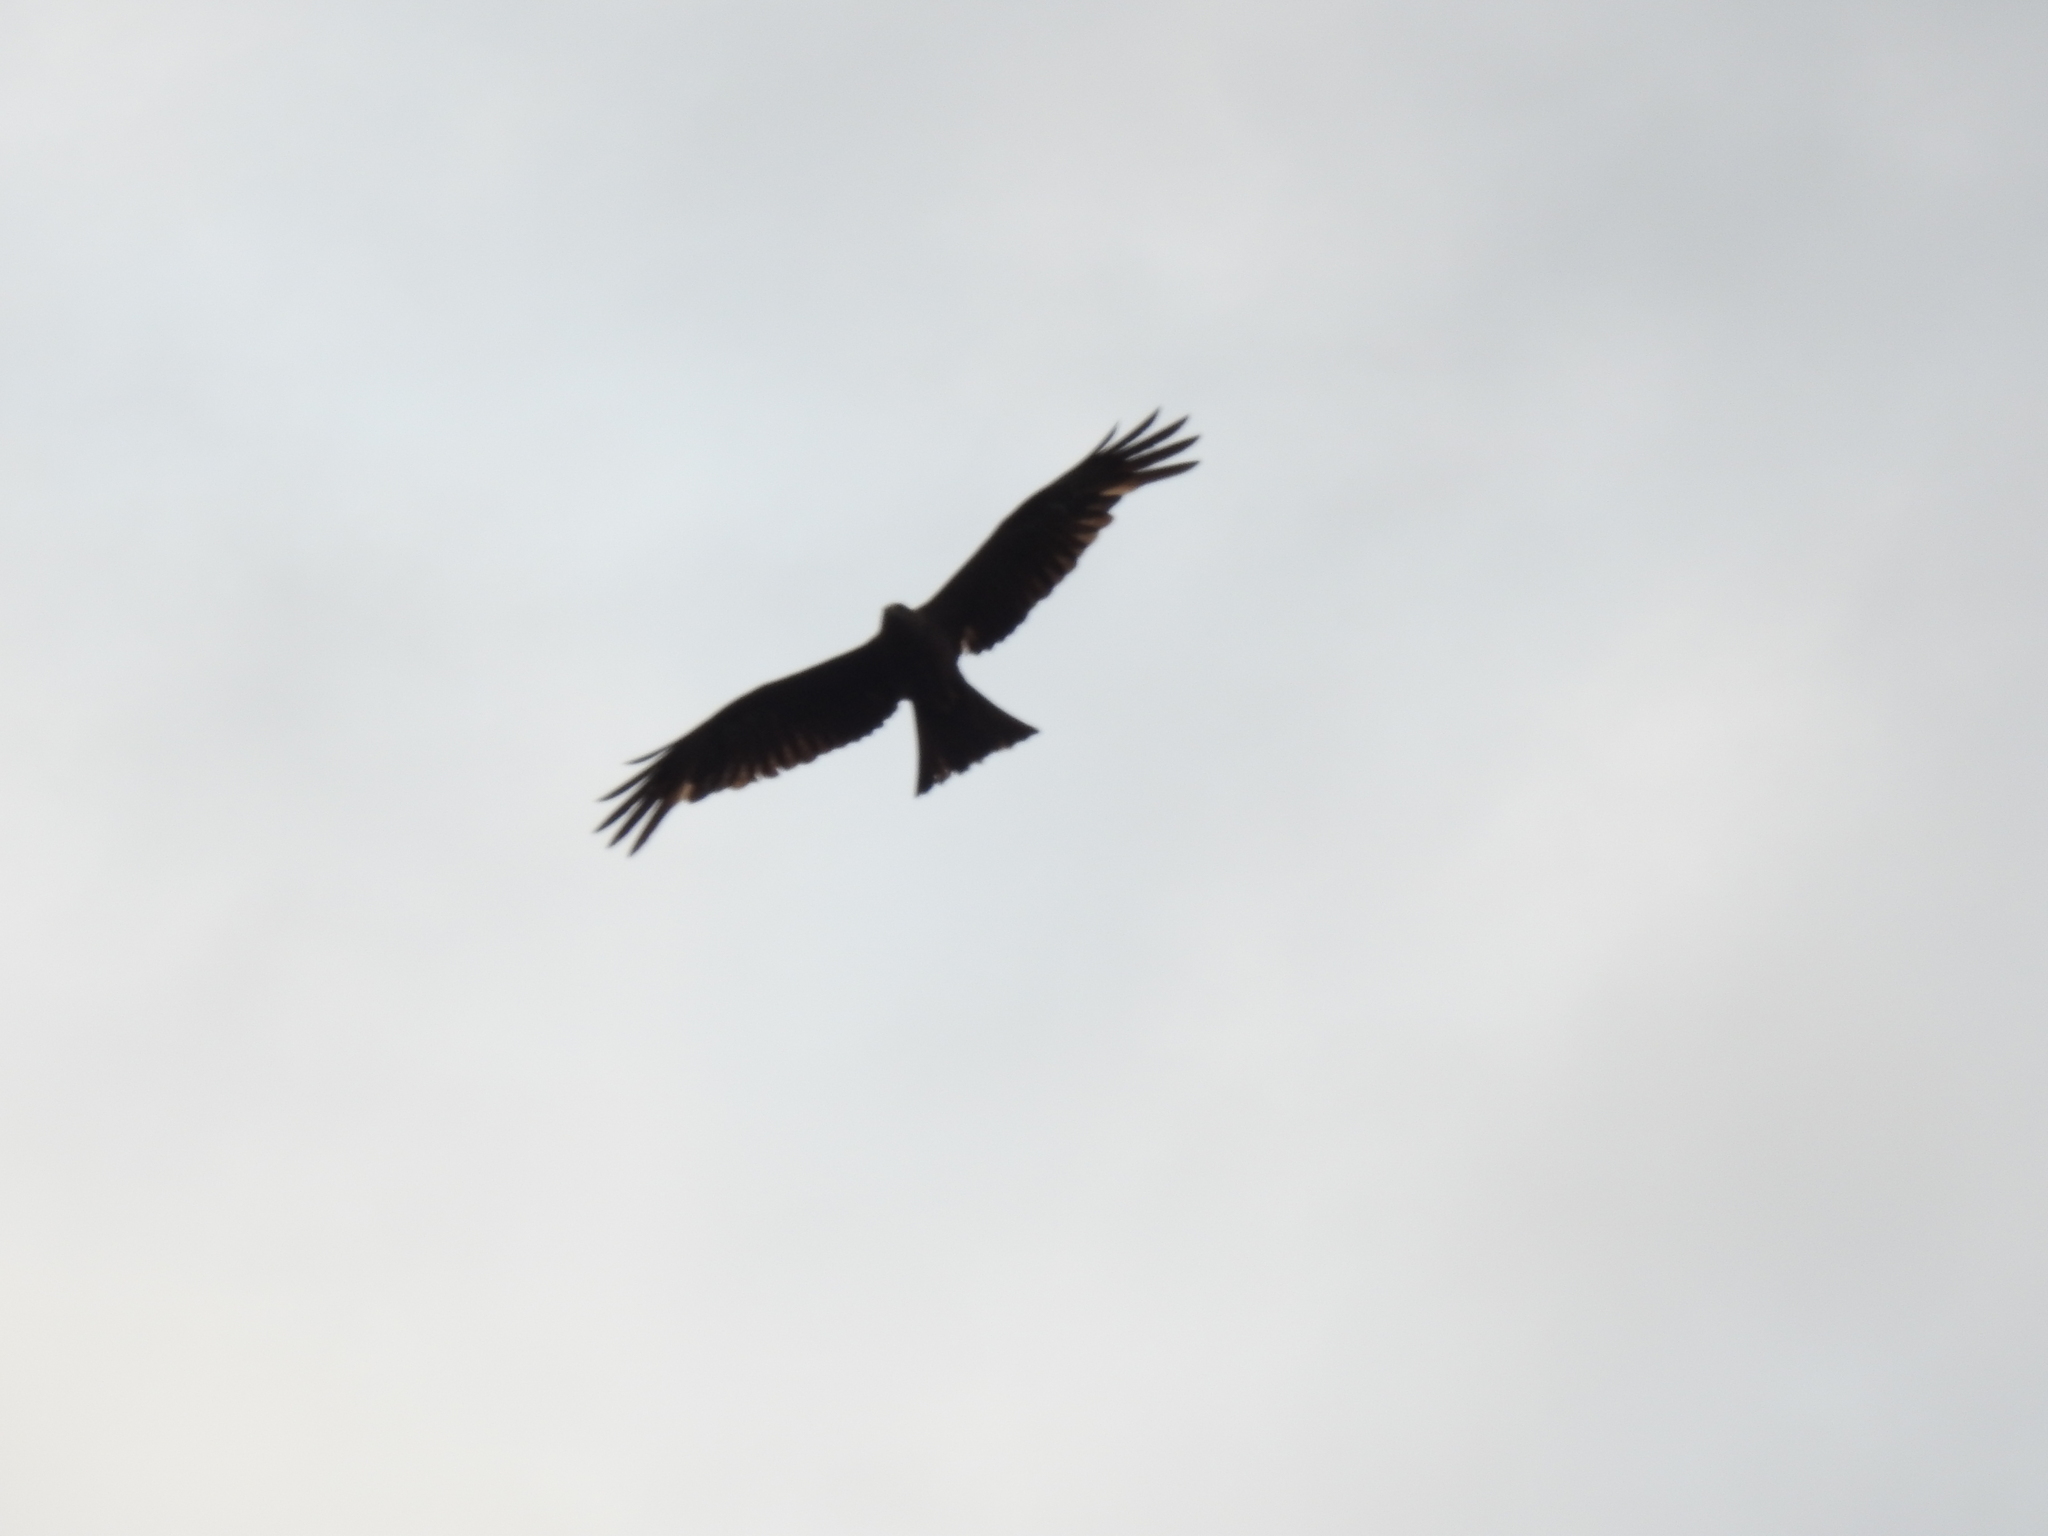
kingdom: Animalia
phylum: Chordata
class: Aves
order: Accipitriformes
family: Accipitridae
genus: Milvus
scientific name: Milvus migrans
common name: Black kite
